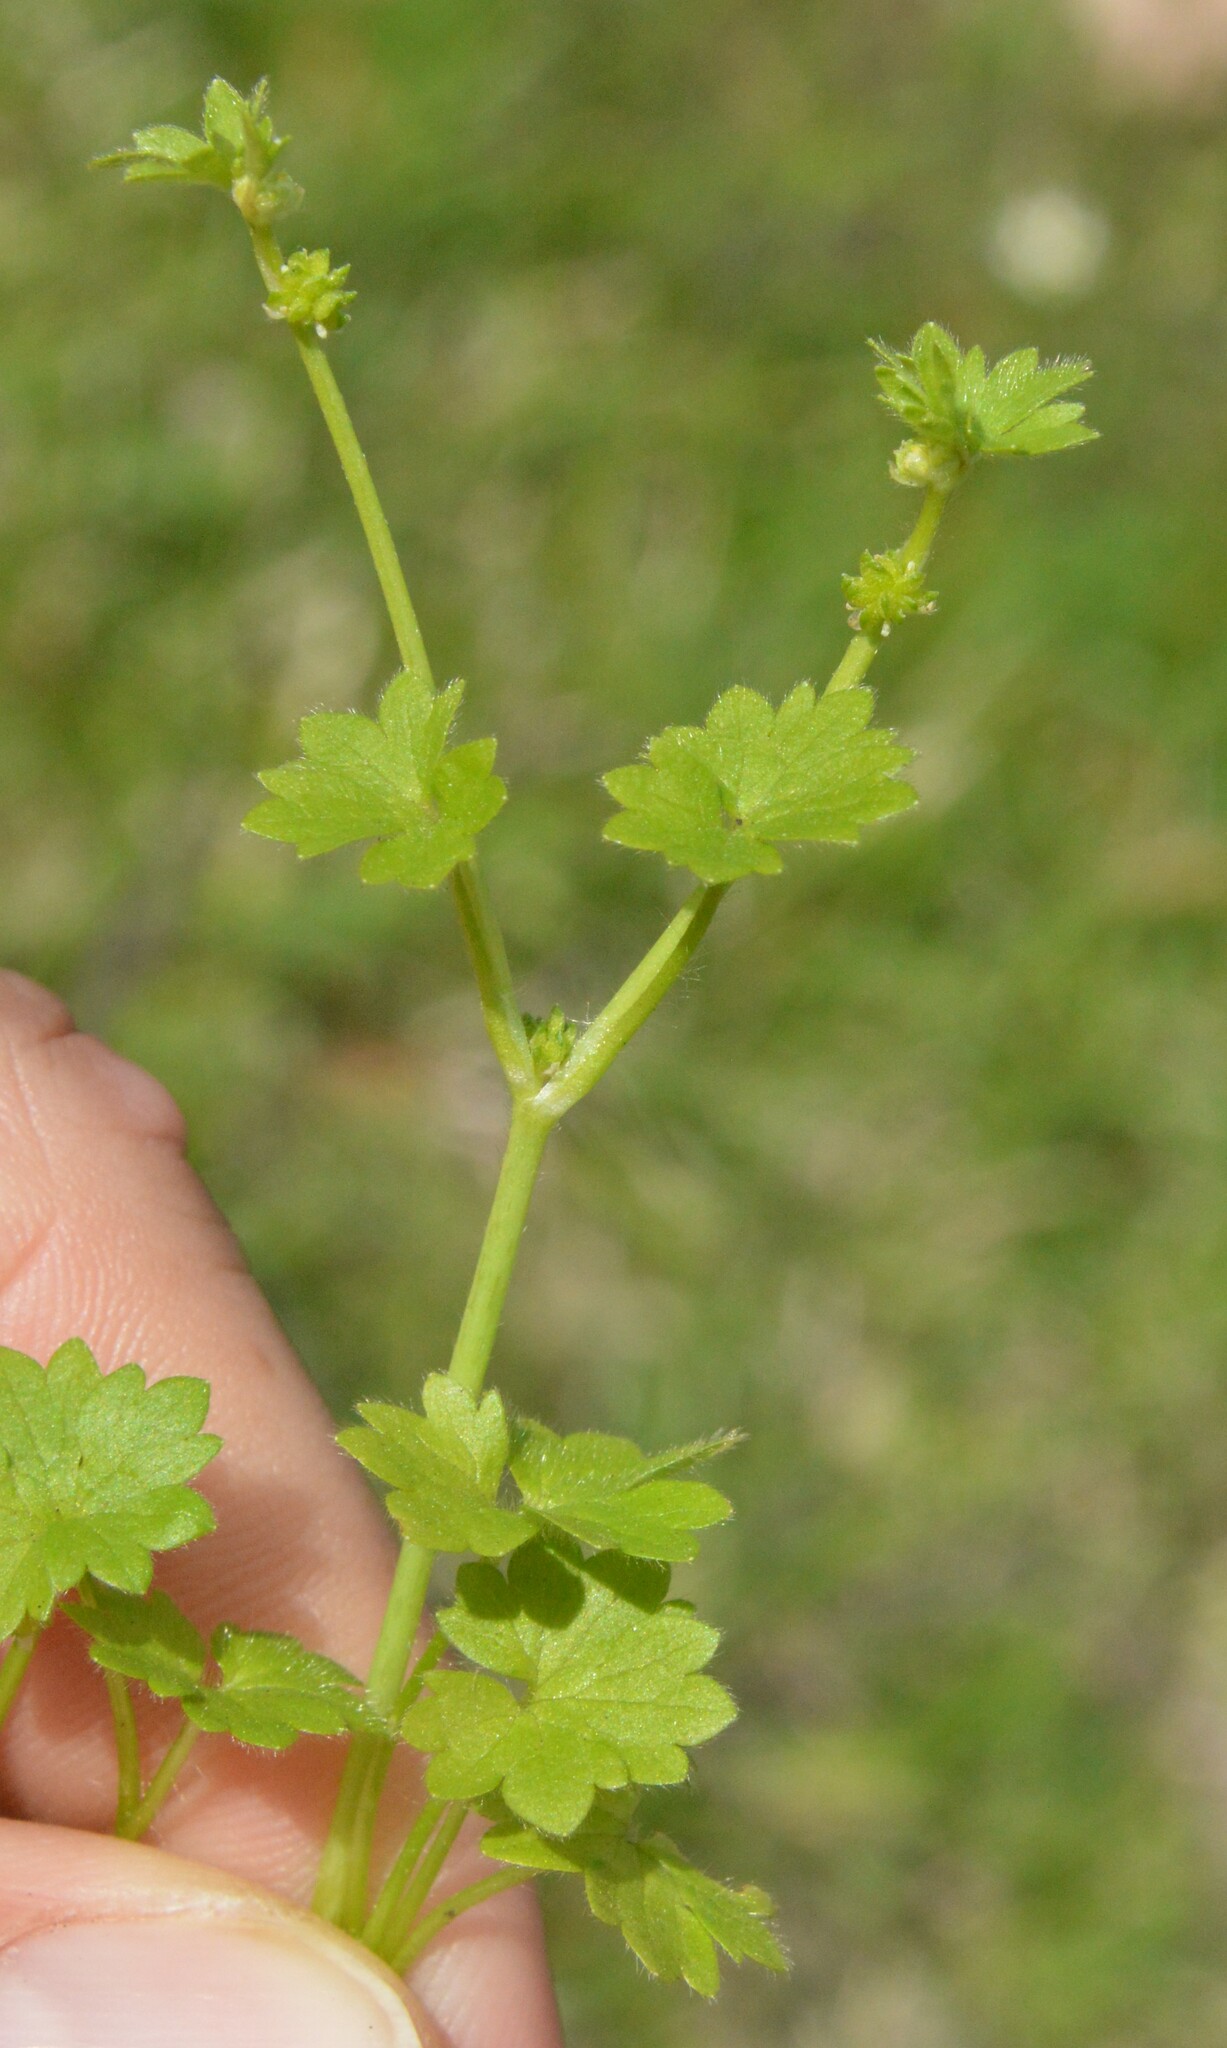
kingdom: Plantae
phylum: Tracheophyta
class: Magnoliopsida
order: Ranunculales
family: Ranunculaceae
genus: Ranunculus
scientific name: Ranunculus platensis
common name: Prairie buttercup
